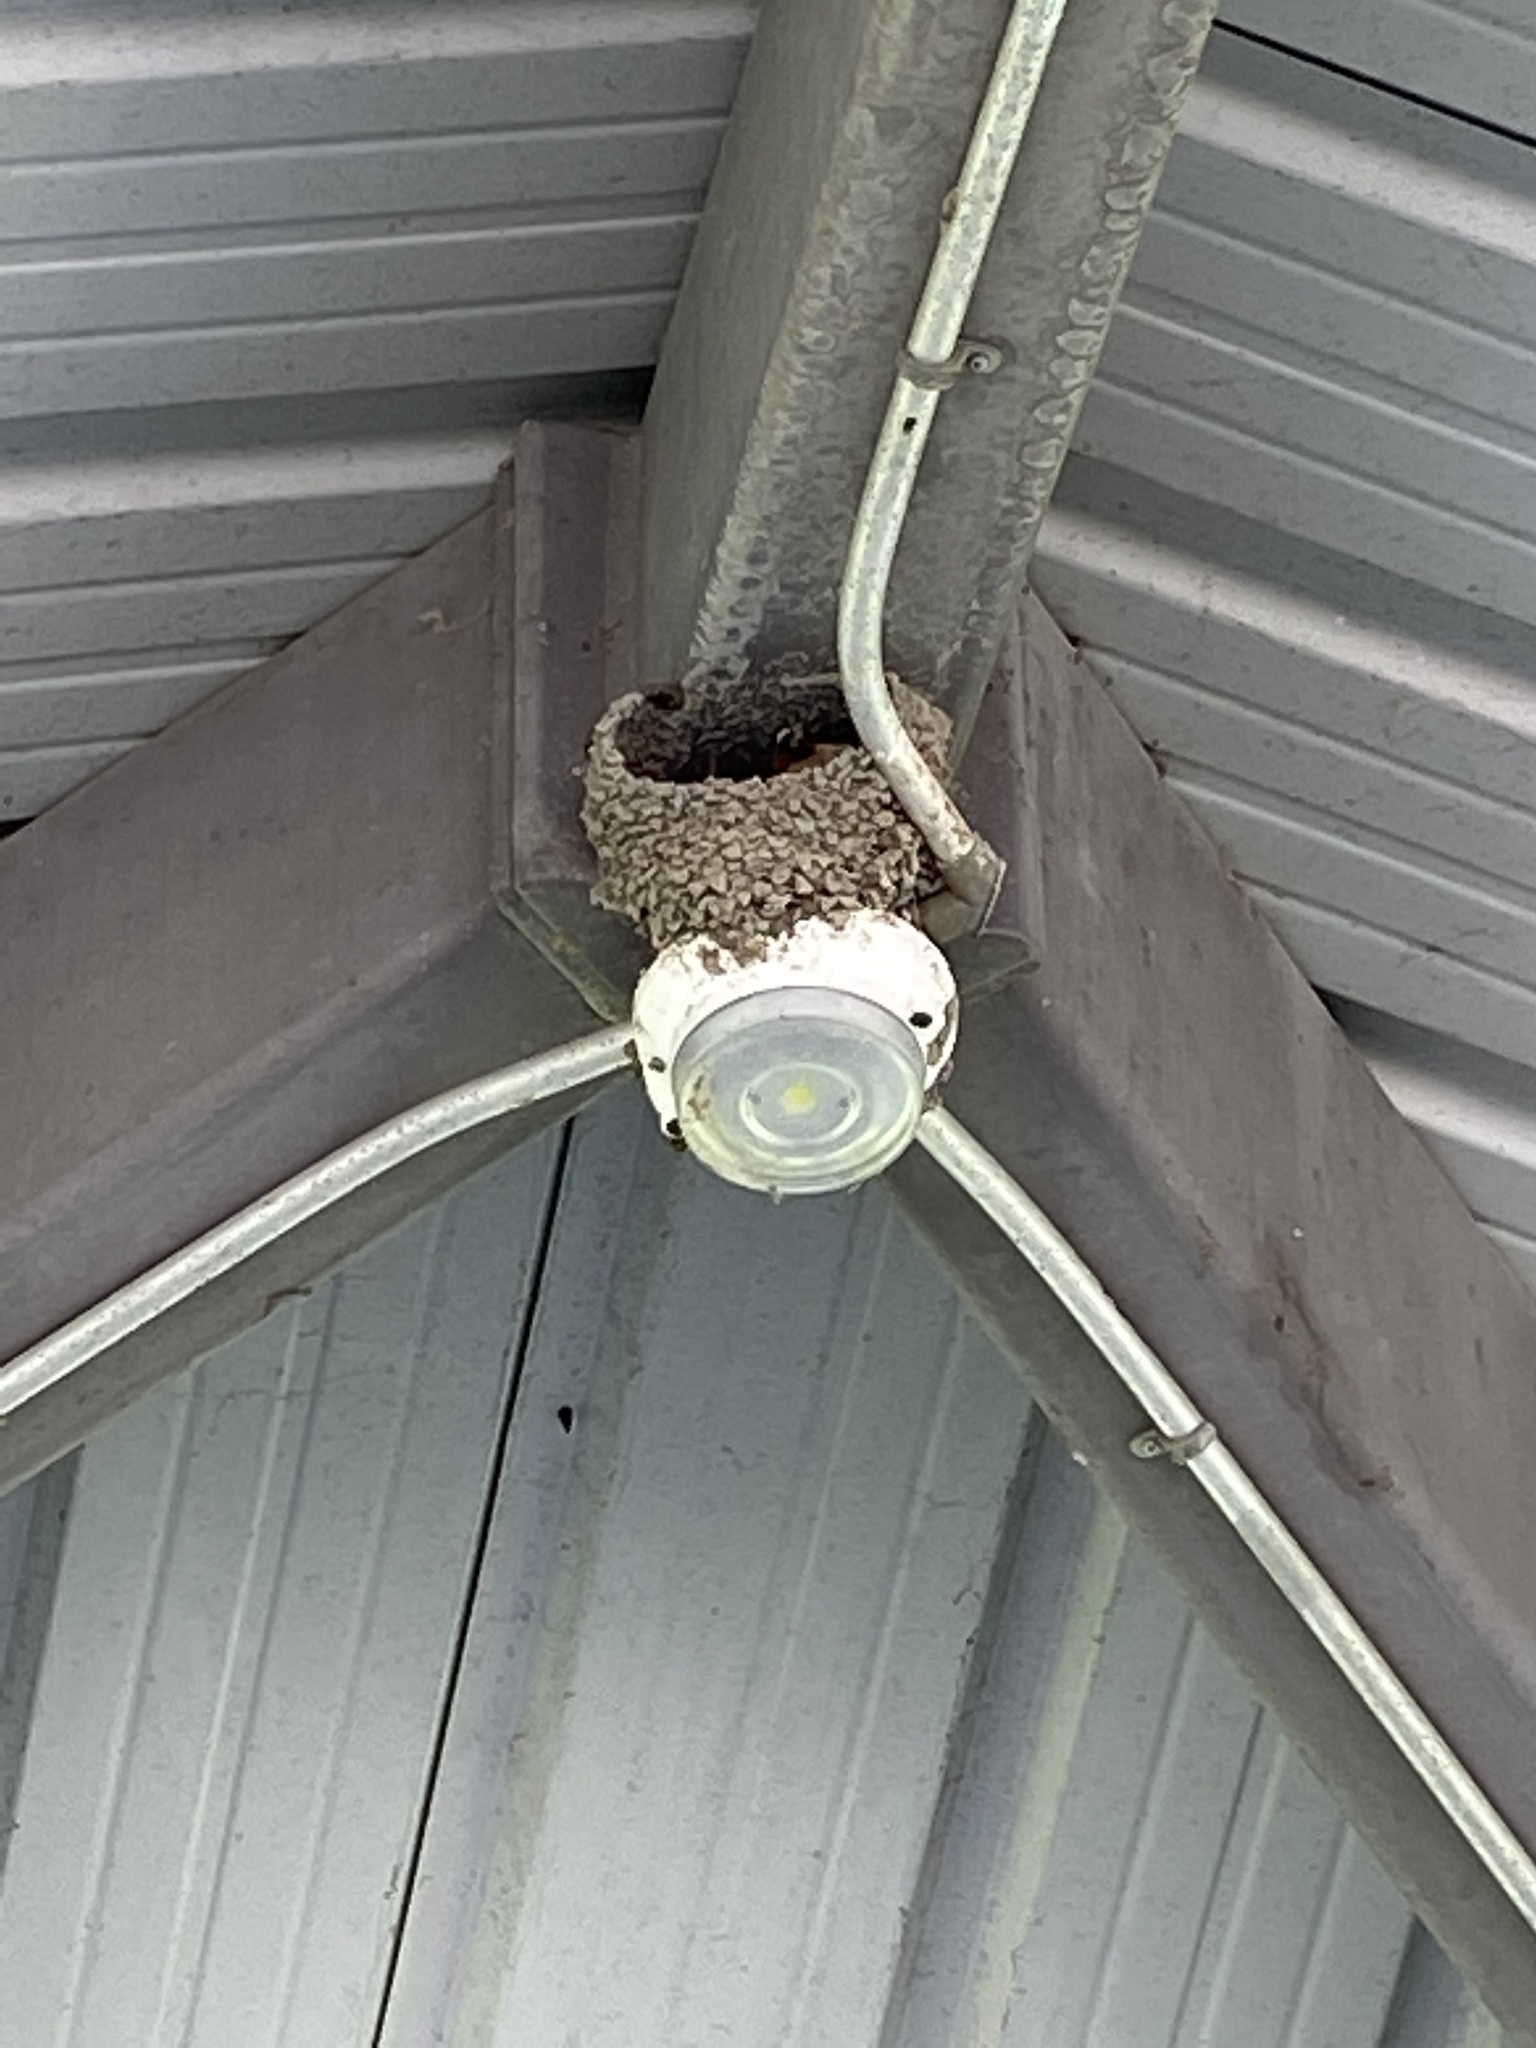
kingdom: Animalia
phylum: Chordata
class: Aves
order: Passeriformes
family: Hirundinidae
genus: Petrochelidon
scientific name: Petrochelidon pyrrhonota
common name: American cliff swallow
